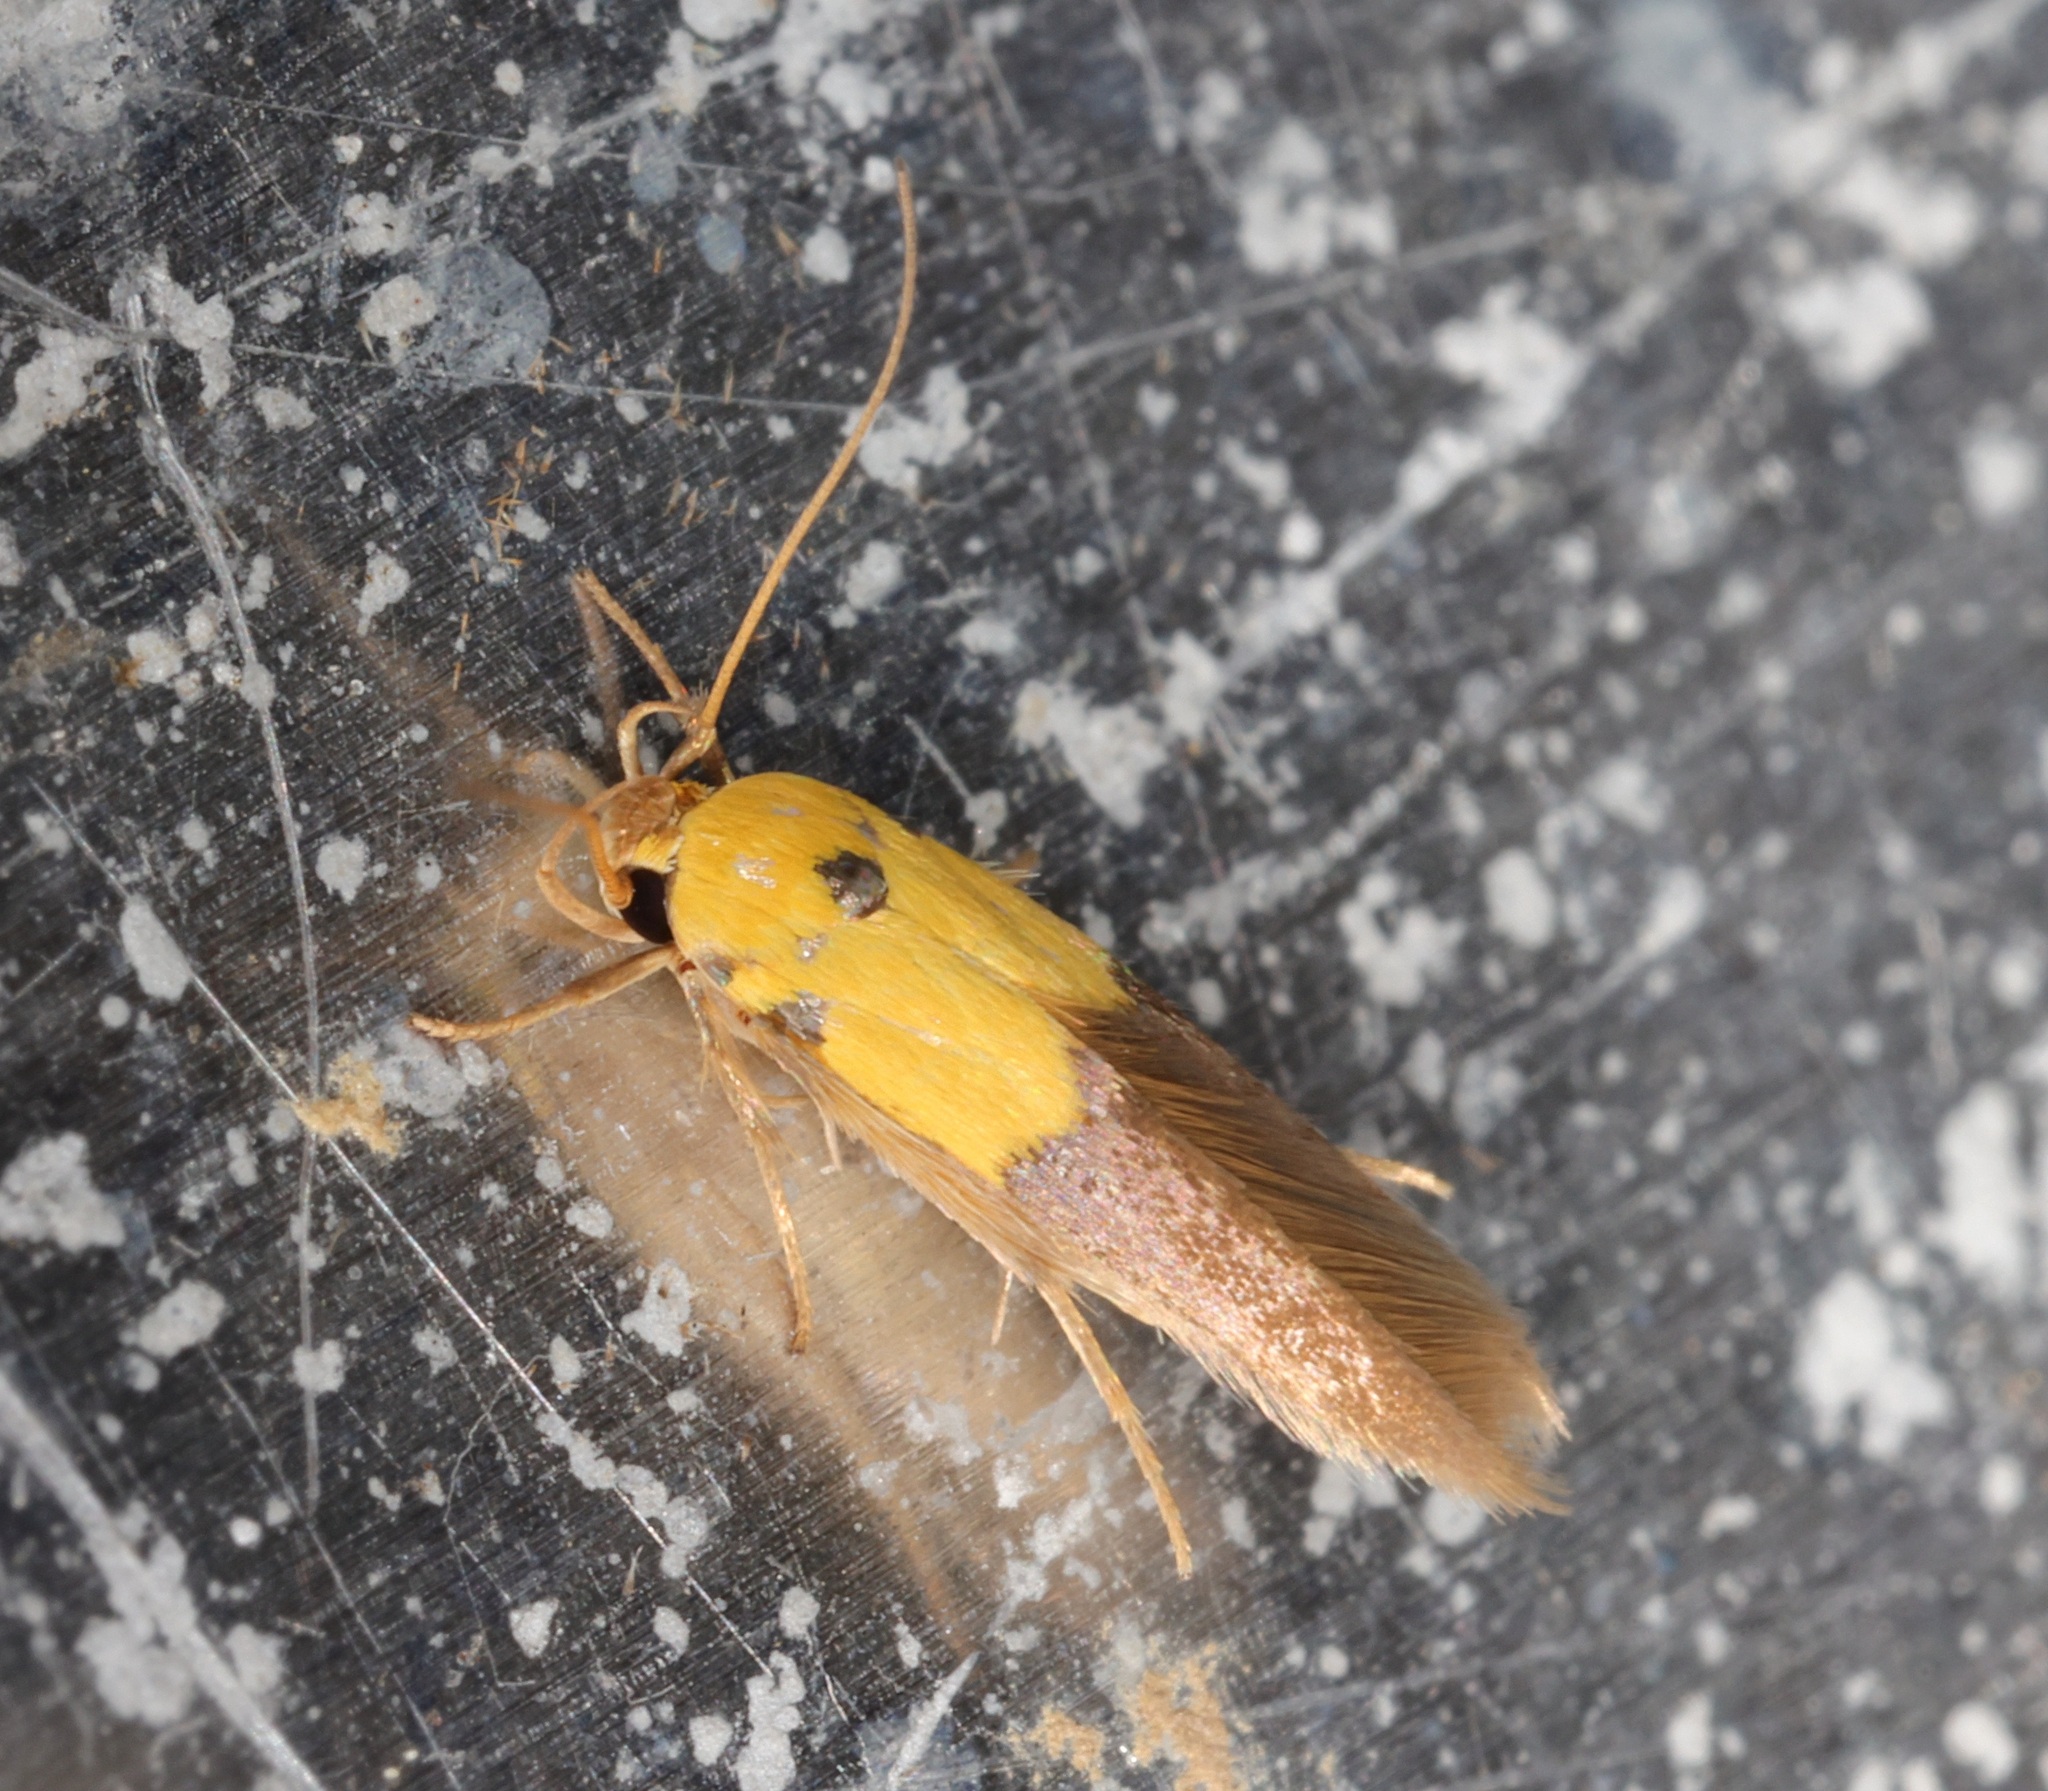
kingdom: Animalia
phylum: Arthropoda
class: Insecta
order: Lepidoptera
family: Stathmopodidae
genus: Stathmopoda
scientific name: Stathmopoda auriferella
